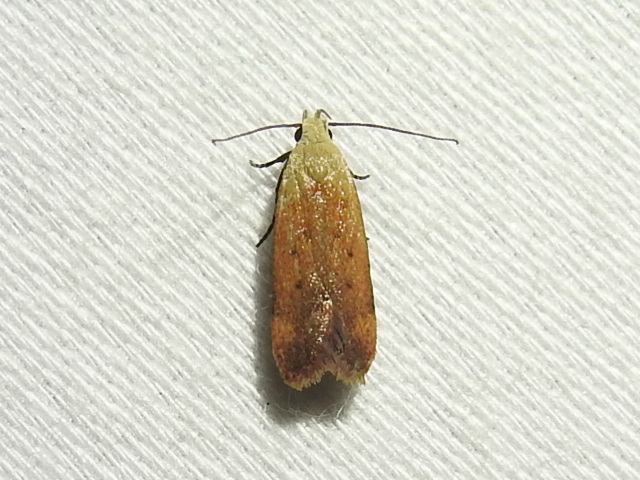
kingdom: Animalia
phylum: Arthropoda
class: Insecta
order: Lepidoptera
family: Gelechiidae
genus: Anacampsis
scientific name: Anacampsis fullonella
